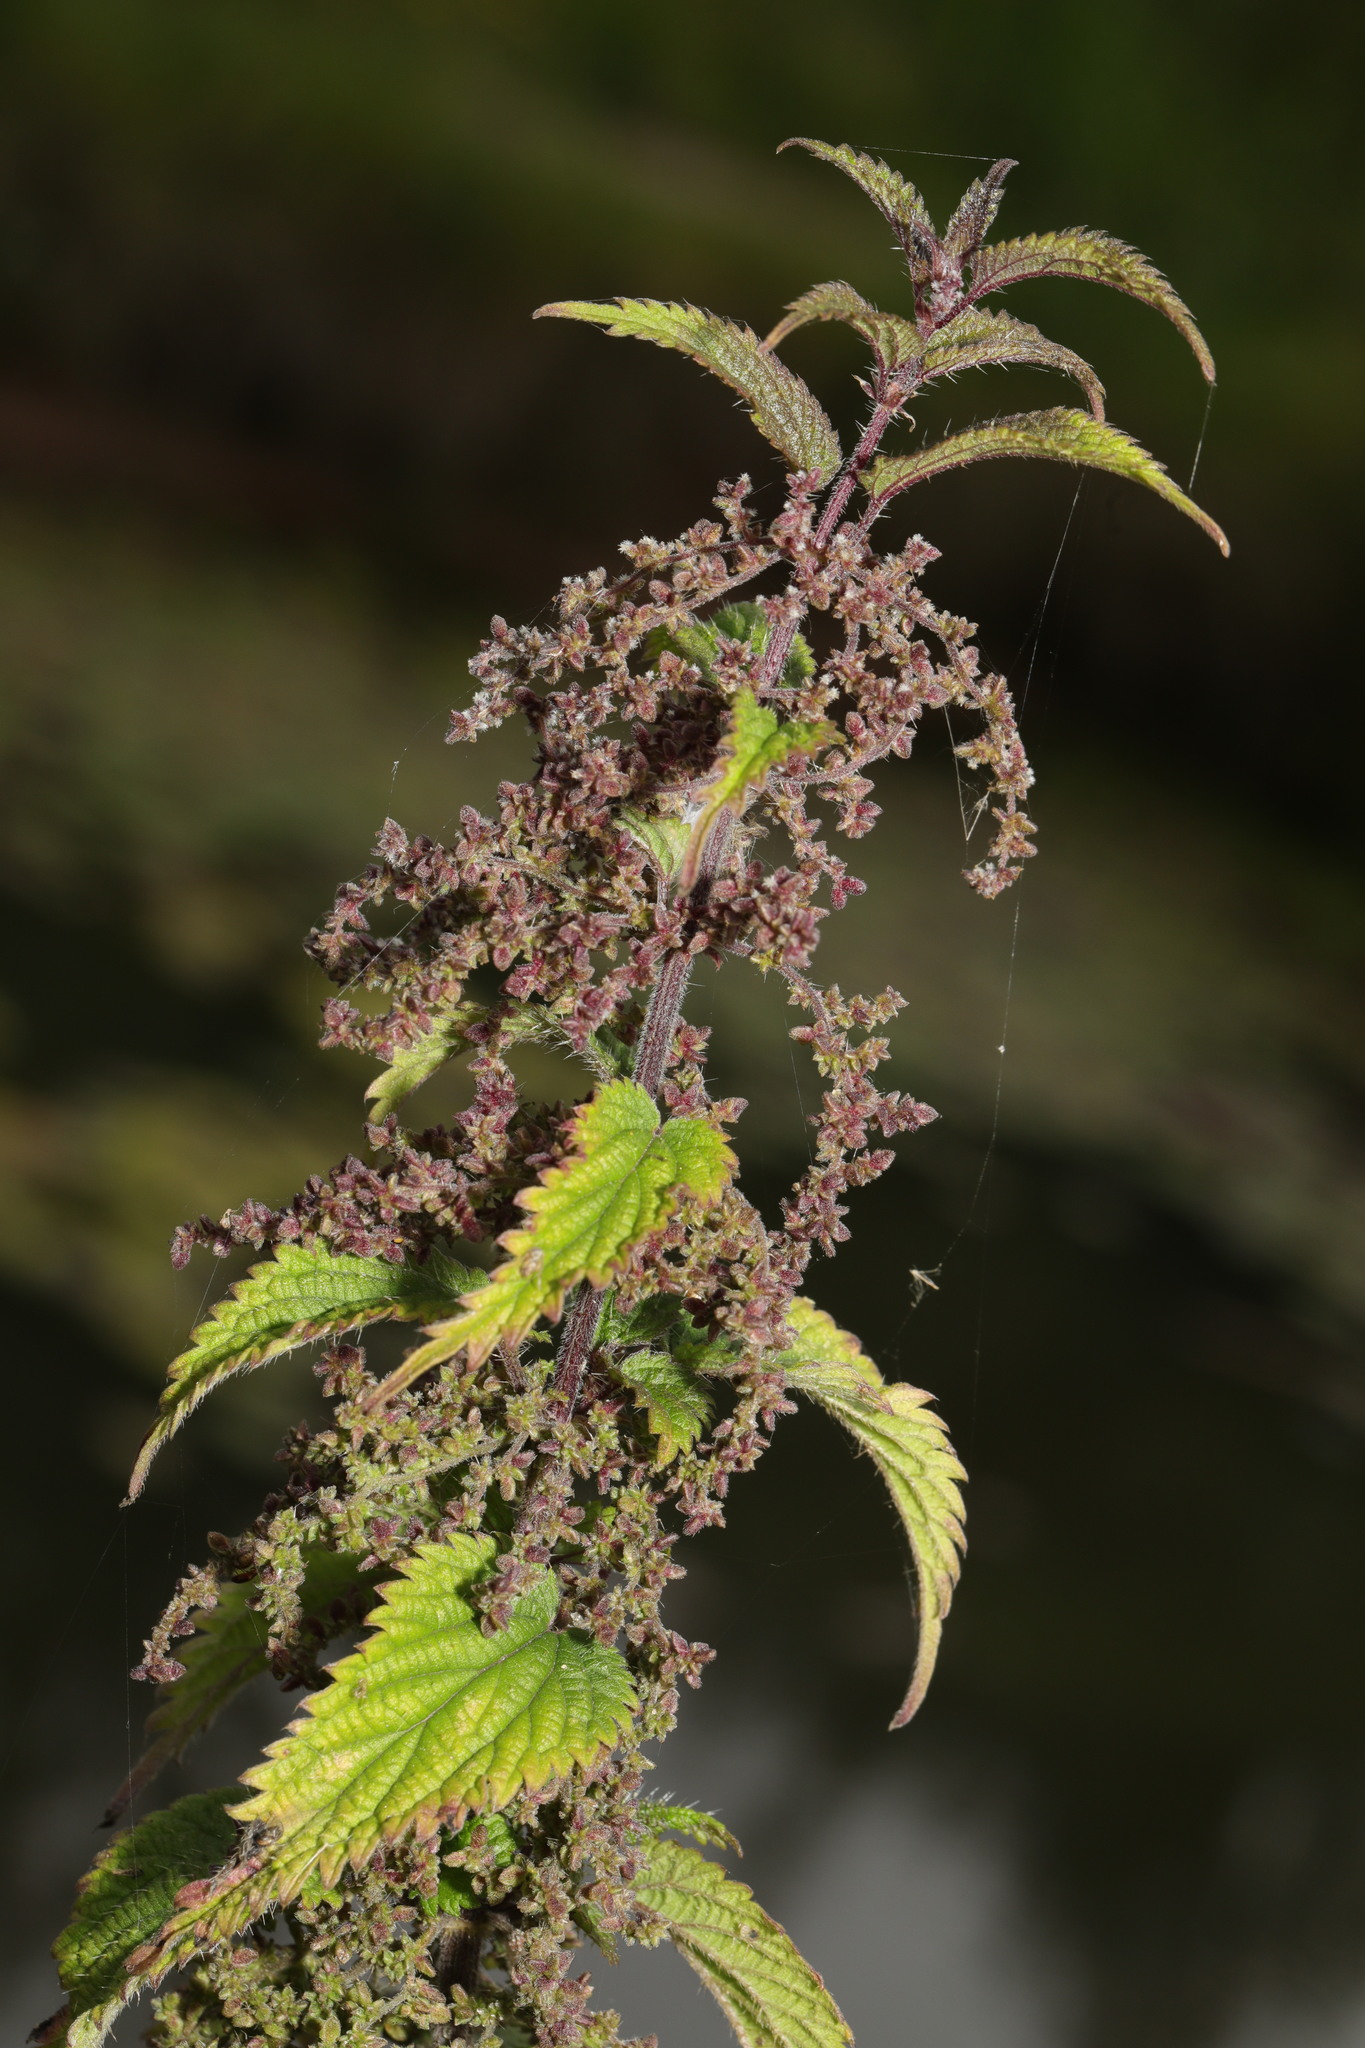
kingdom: Plantae
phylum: Tracheophyta
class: Magnoliopsida
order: Rosales
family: Urticaceae
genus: Urtica
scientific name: Urtica dioica
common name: Common nettle
